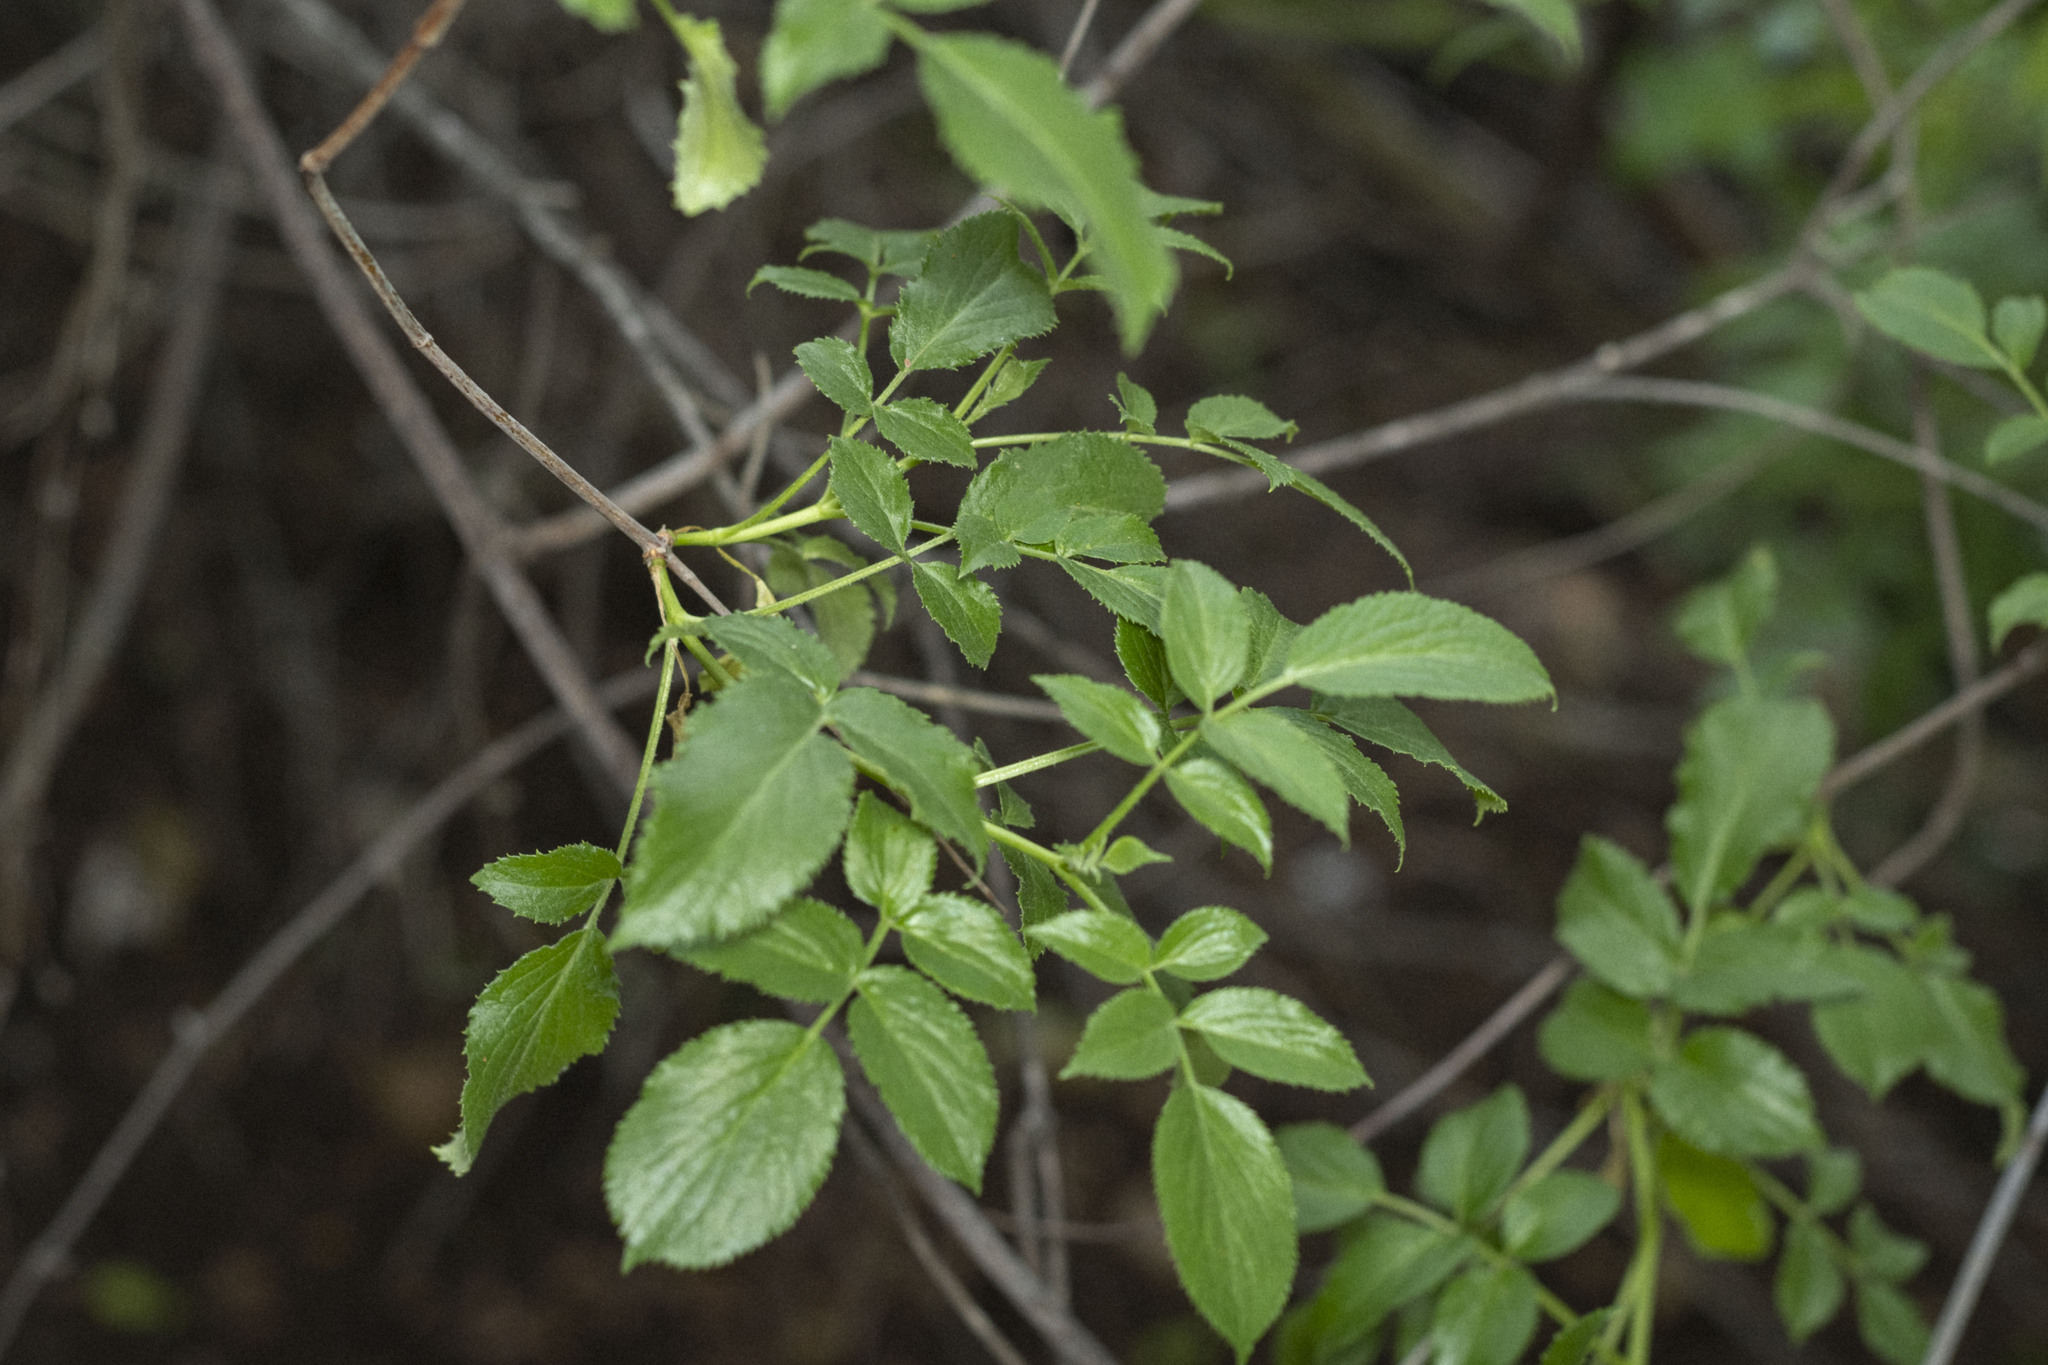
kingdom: Plantae
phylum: Tracheophyta
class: Magnoliopsida
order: Dipsacales
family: Viburnaceae
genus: Sambucus
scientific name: Sambucus cerulea
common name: Blue elder
